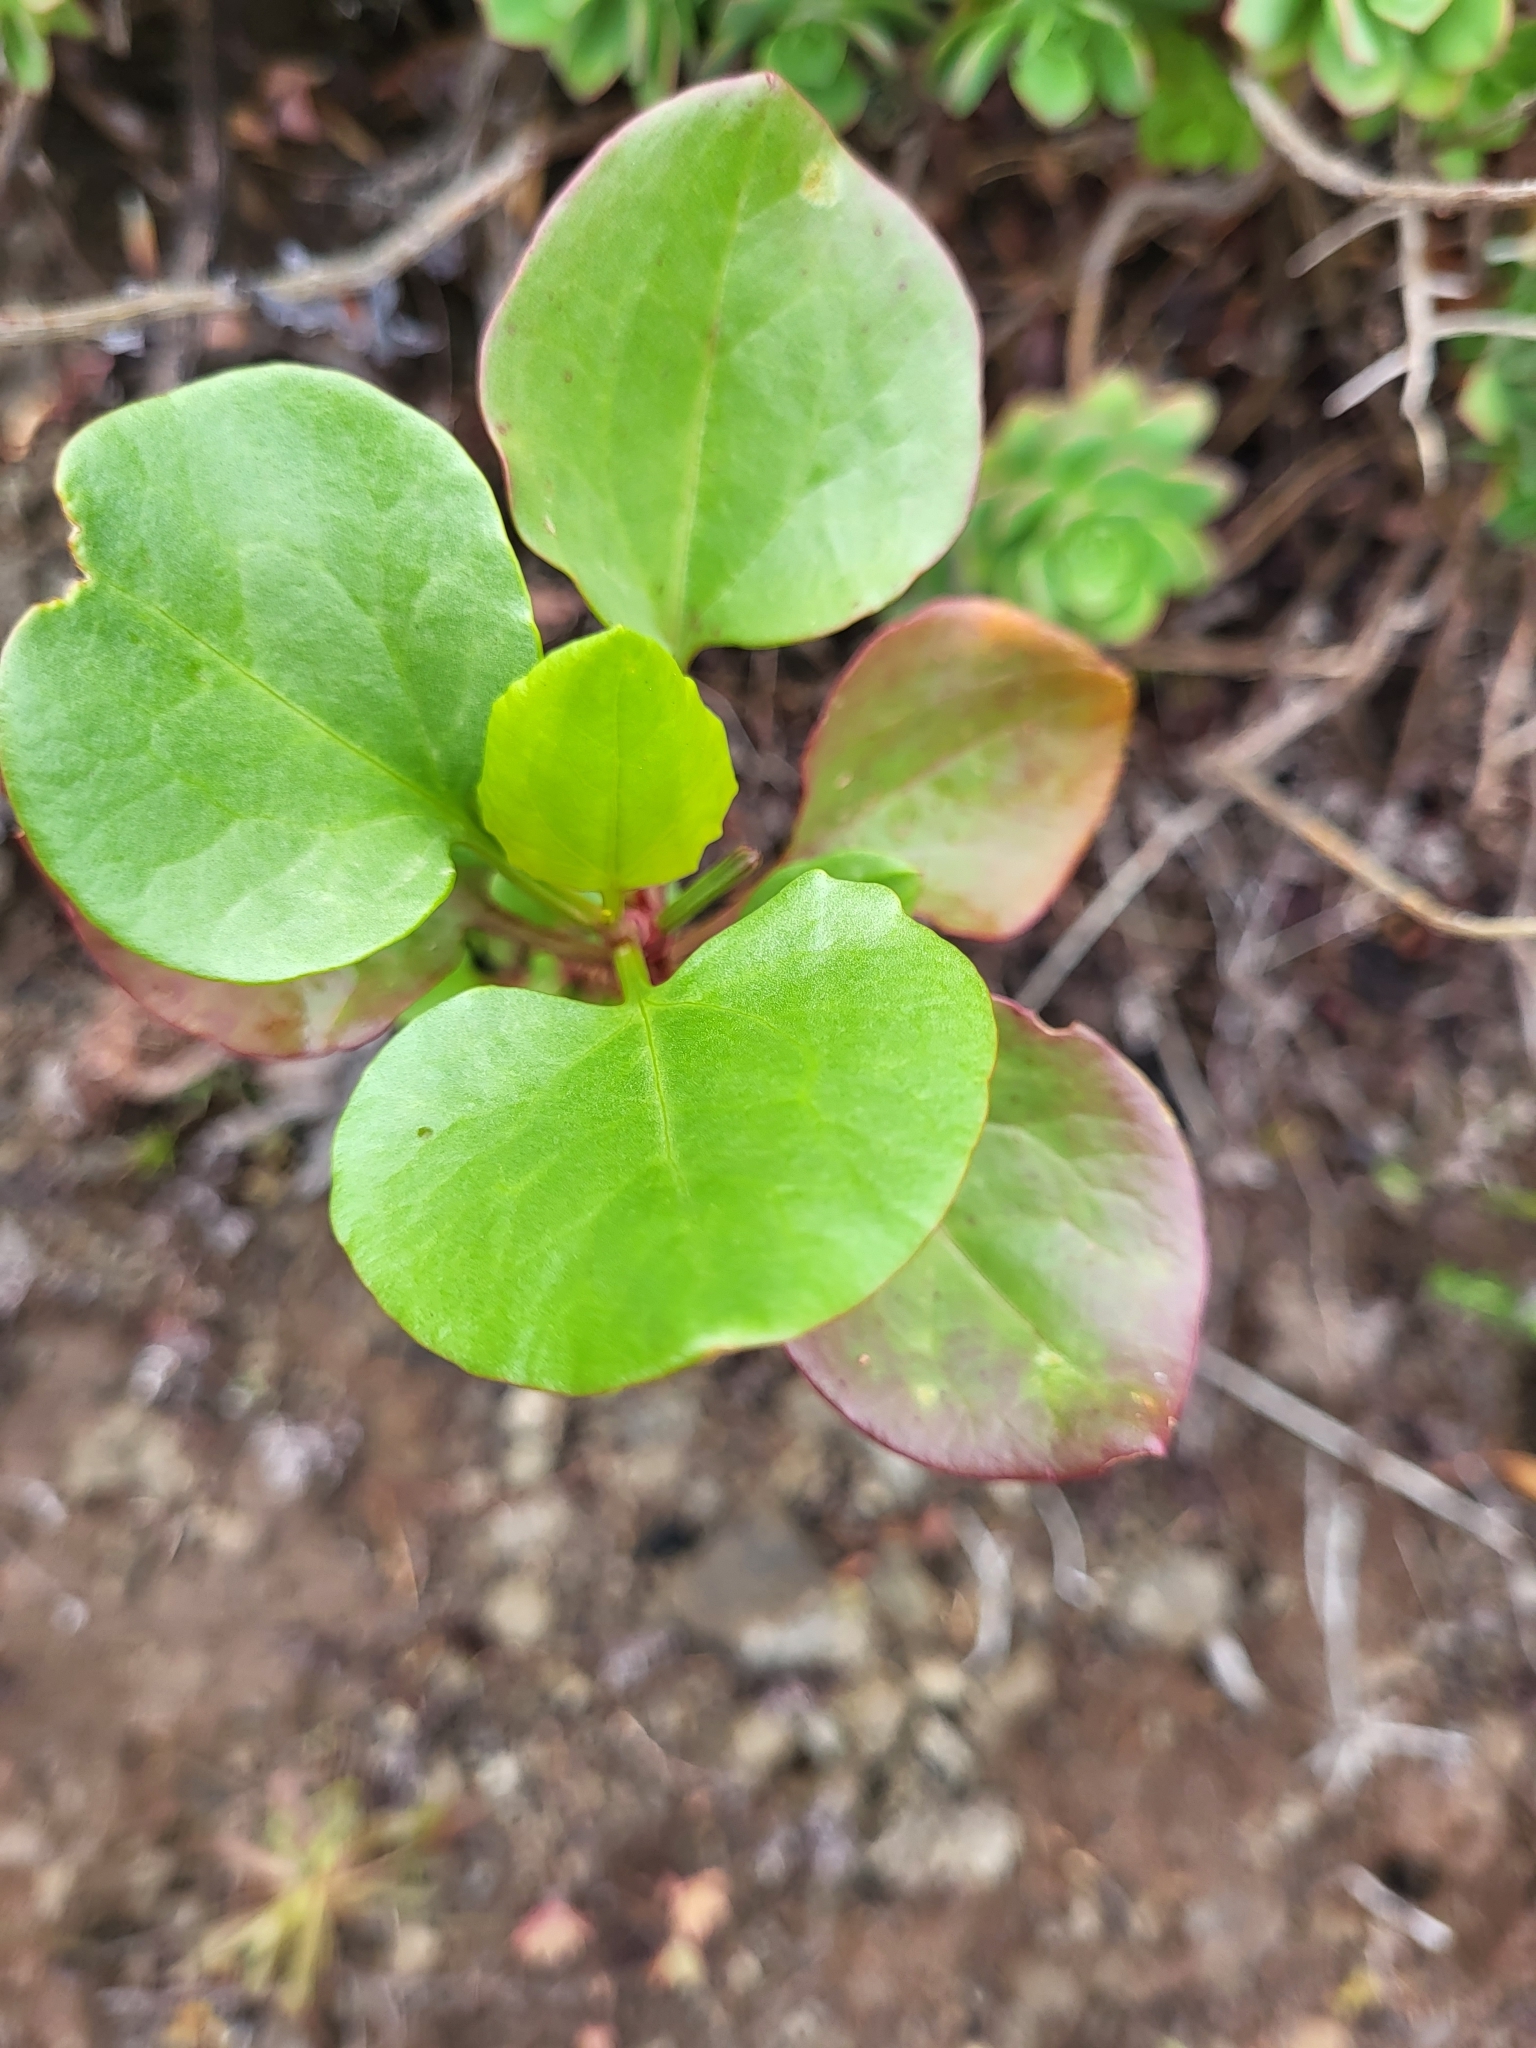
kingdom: Plantae
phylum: Tracheophyta
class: Magnoliopsida
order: Caryophyllales
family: Polygonaceae
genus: Rumex
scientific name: Rumex lunaria
